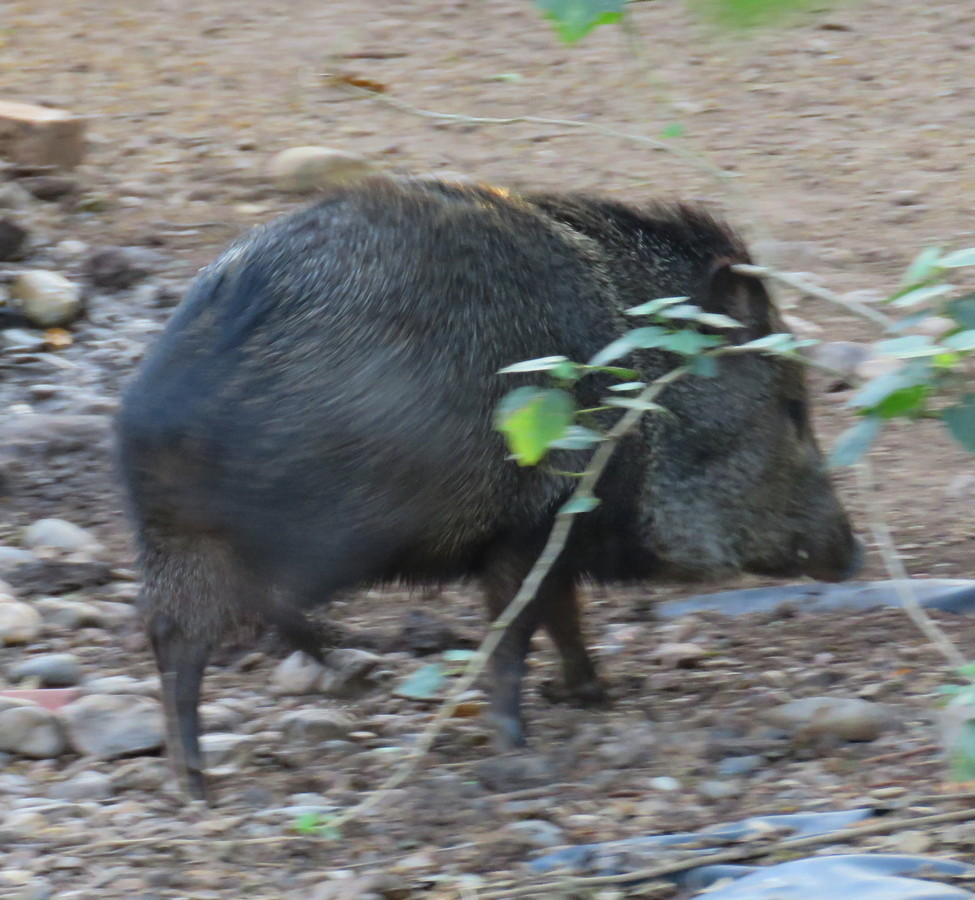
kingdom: Animalia
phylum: Chordata
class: Mammalia
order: Artiodactyla
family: Tayassuidae
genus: Pecari
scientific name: Pecari tajacu
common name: Collared peccary
